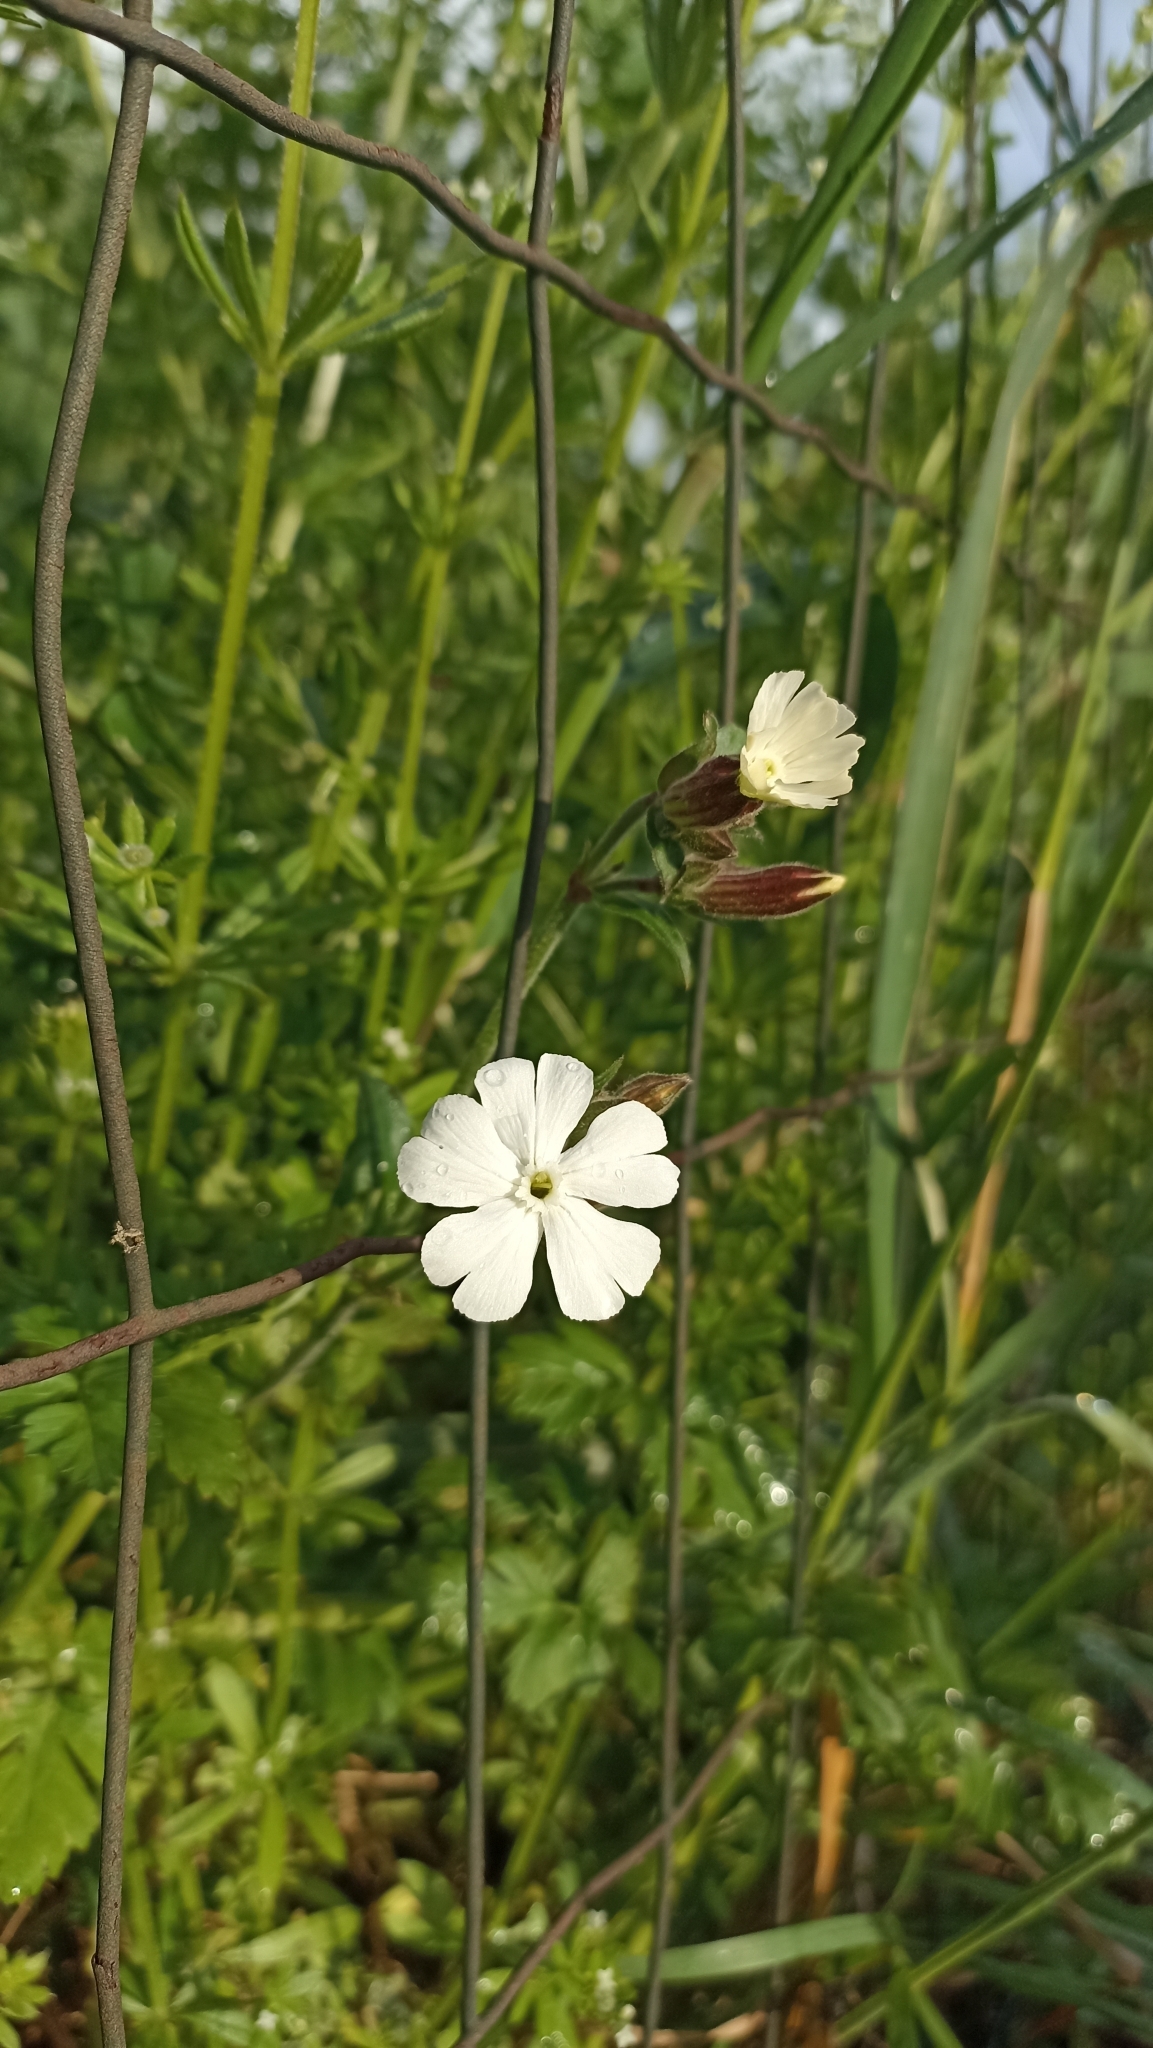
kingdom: Plantae
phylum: Tracheophyta
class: Magnoliopsida
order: Caryophyllales
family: Caryophyllaceae
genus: Silene
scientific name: Silene latifolia
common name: White campion
